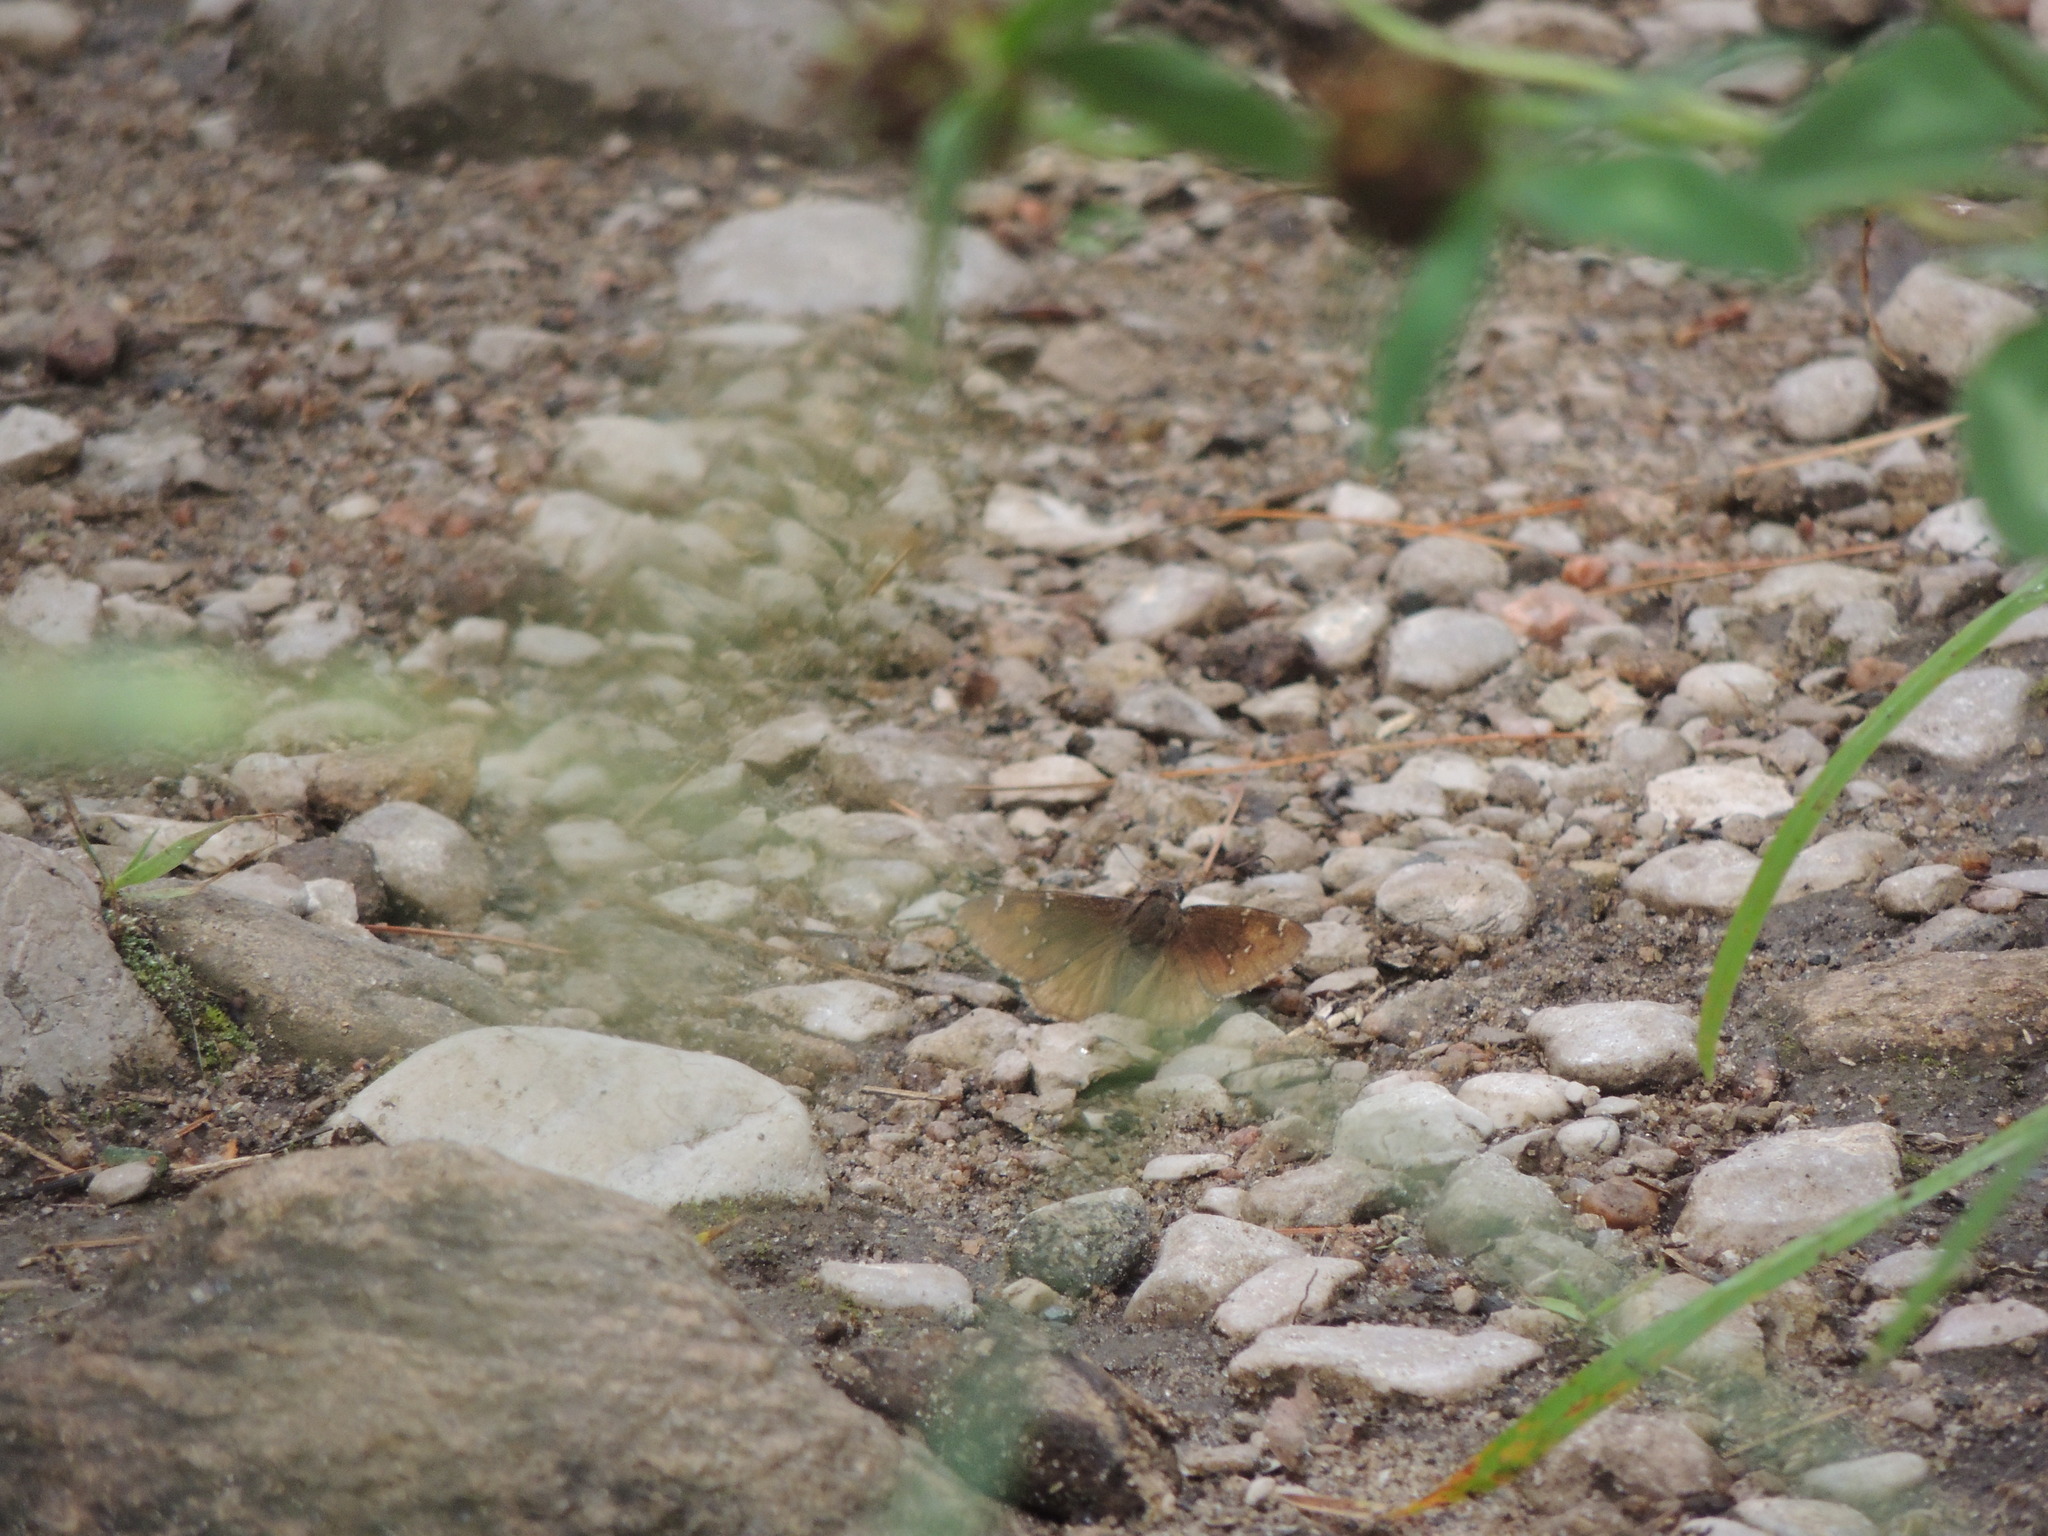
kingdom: Animalia
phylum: Arthropoda
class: Insecta
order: Lepidoptera
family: Hesperiidae
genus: Thorybes
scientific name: Thorybes pylades
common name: Northern cloudywing
